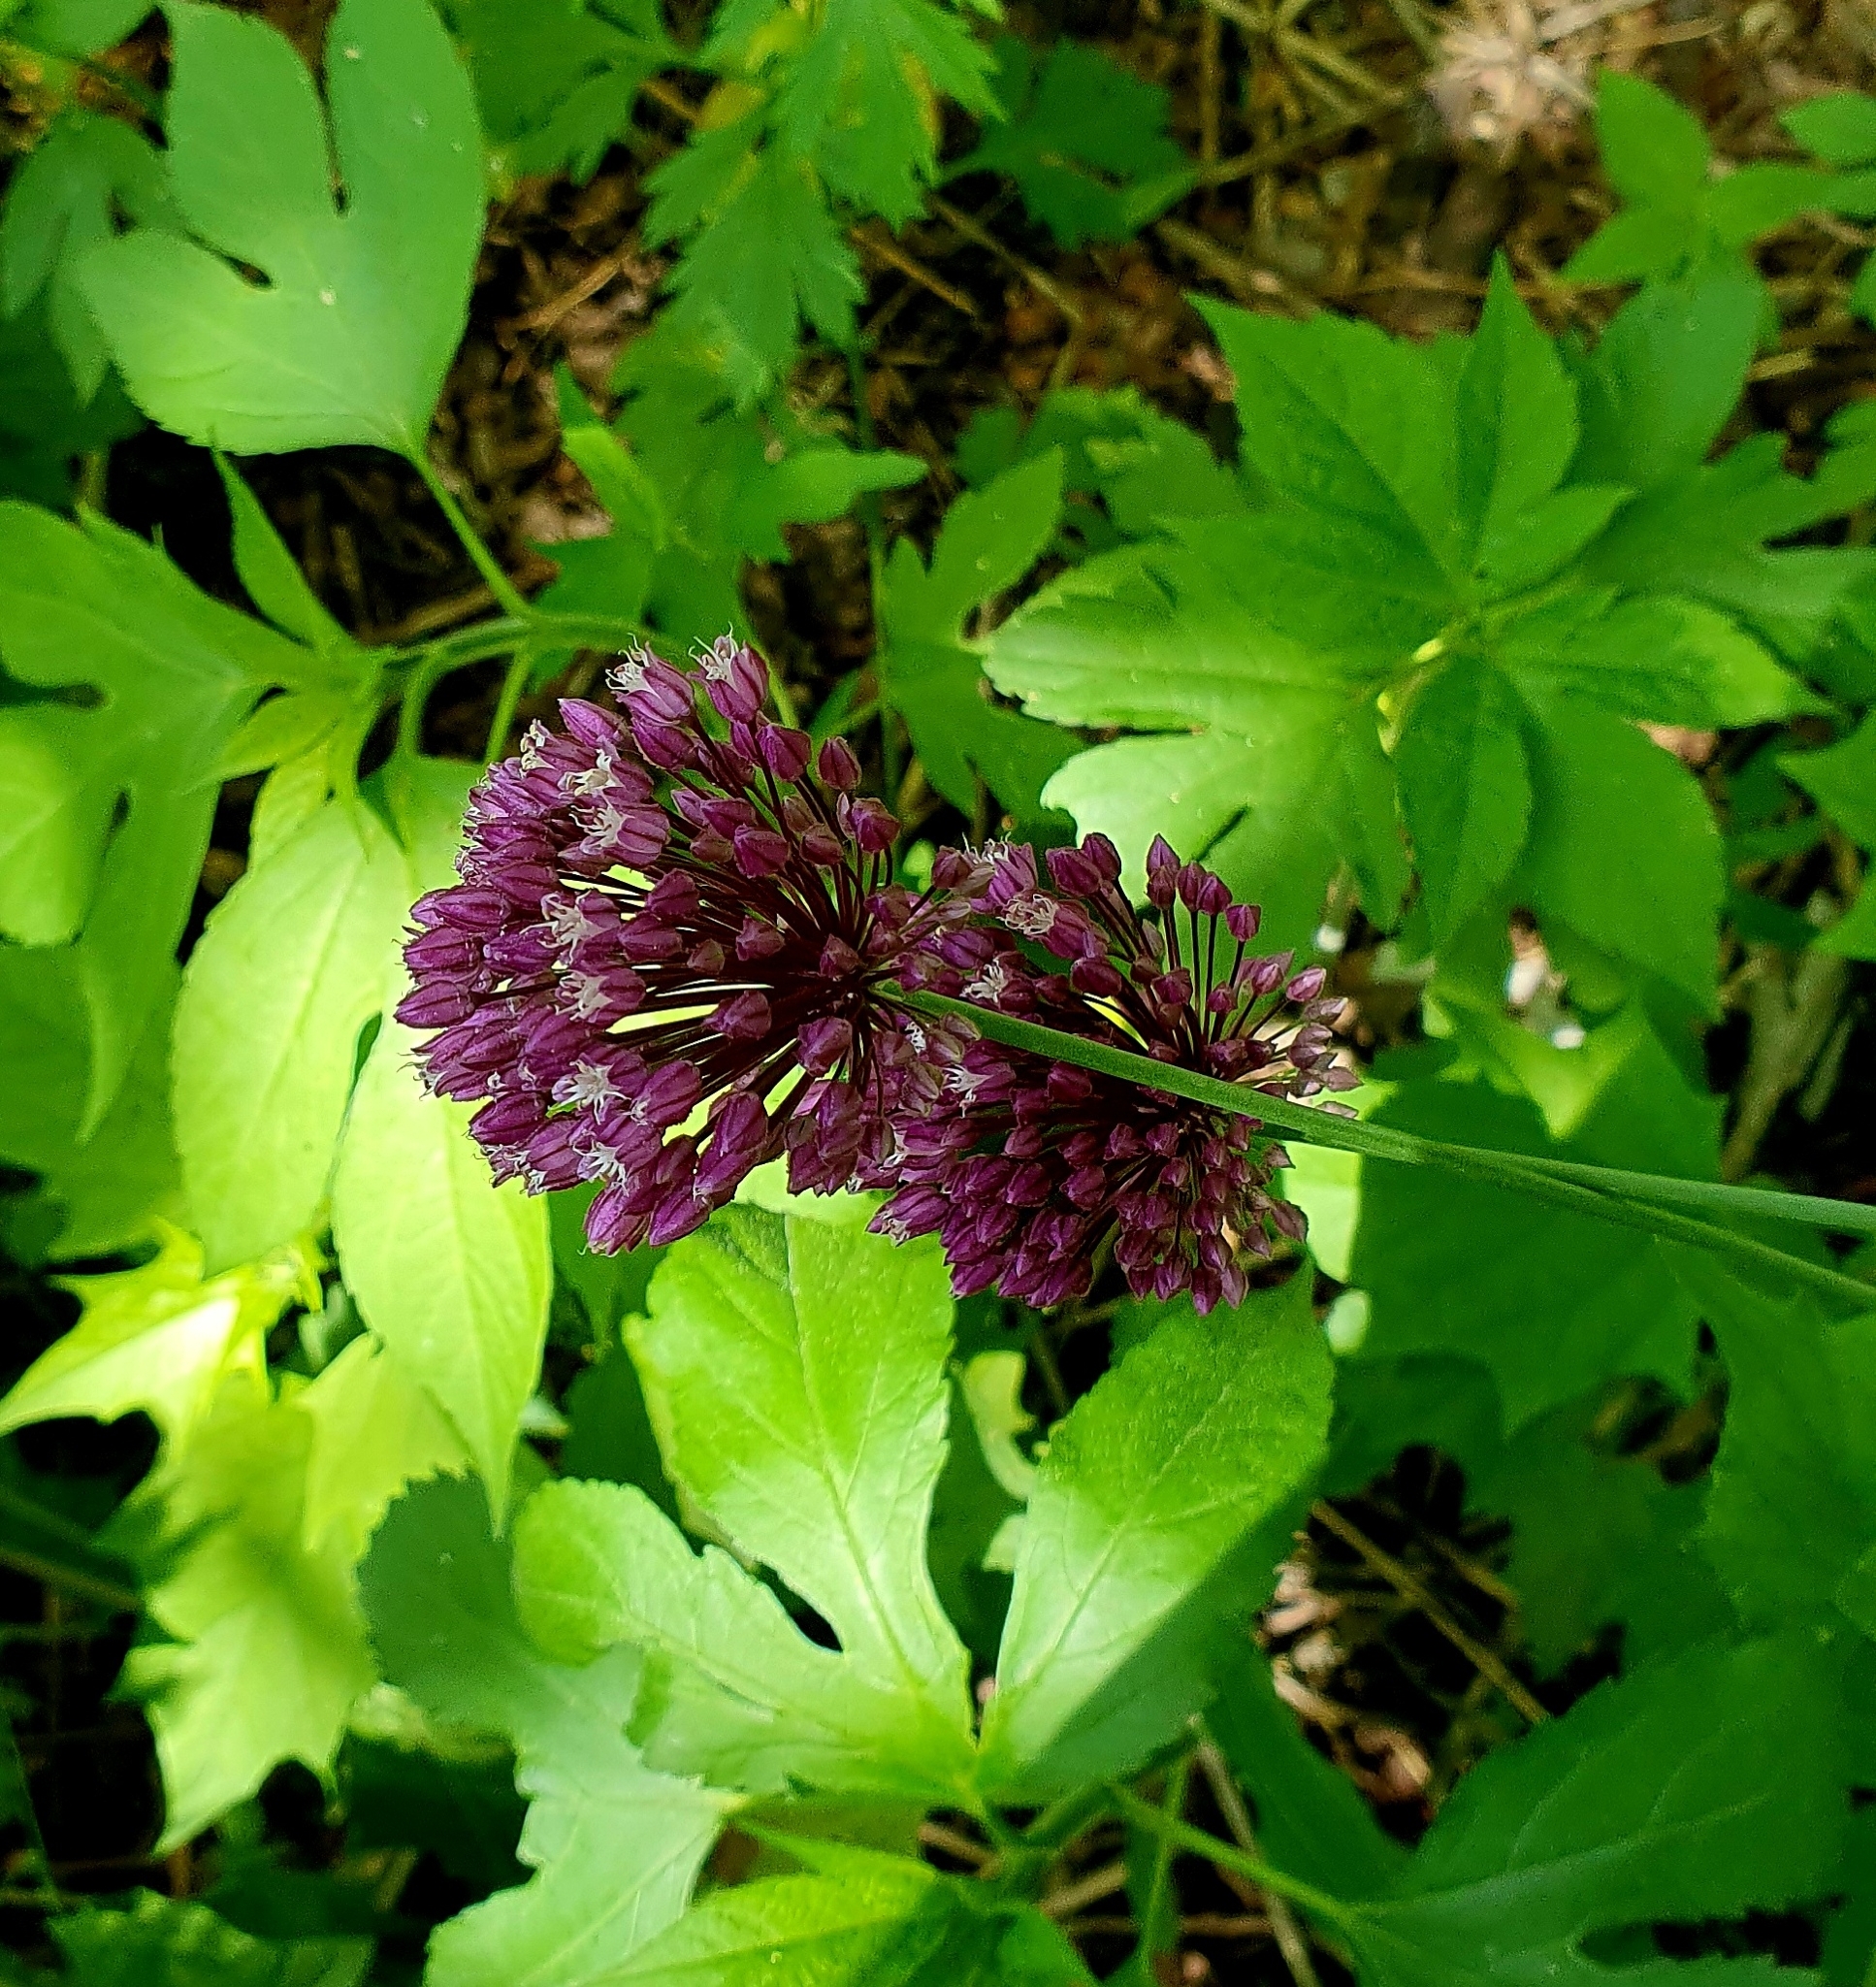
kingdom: Plantae
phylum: Tracheophyta
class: Liliopsida
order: Asparagales
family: Amaryllidaceae
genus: Allium
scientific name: Allium rotundum
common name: Sand leek
